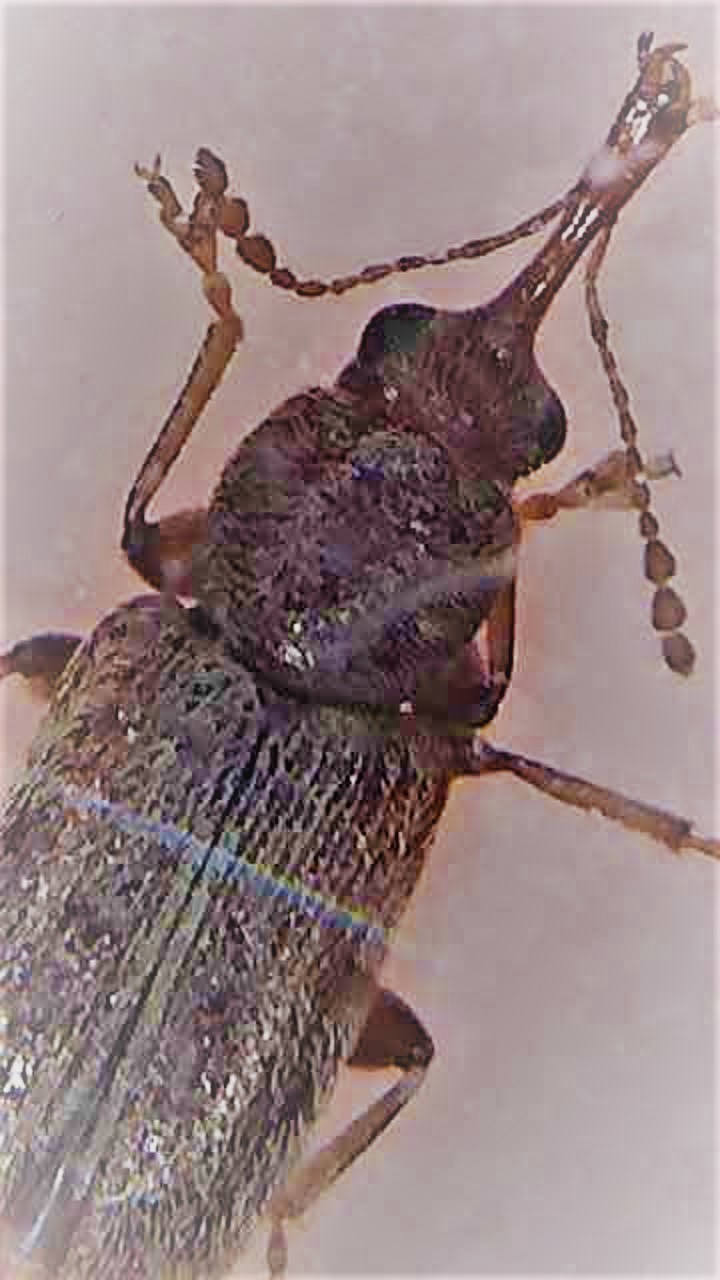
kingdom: Animalia
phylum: Arthropoda
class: Insecta
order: Coleoptera
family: Nemonychidae
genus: Rhinorhynchus
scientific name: Rhinorhynchus rufulus
